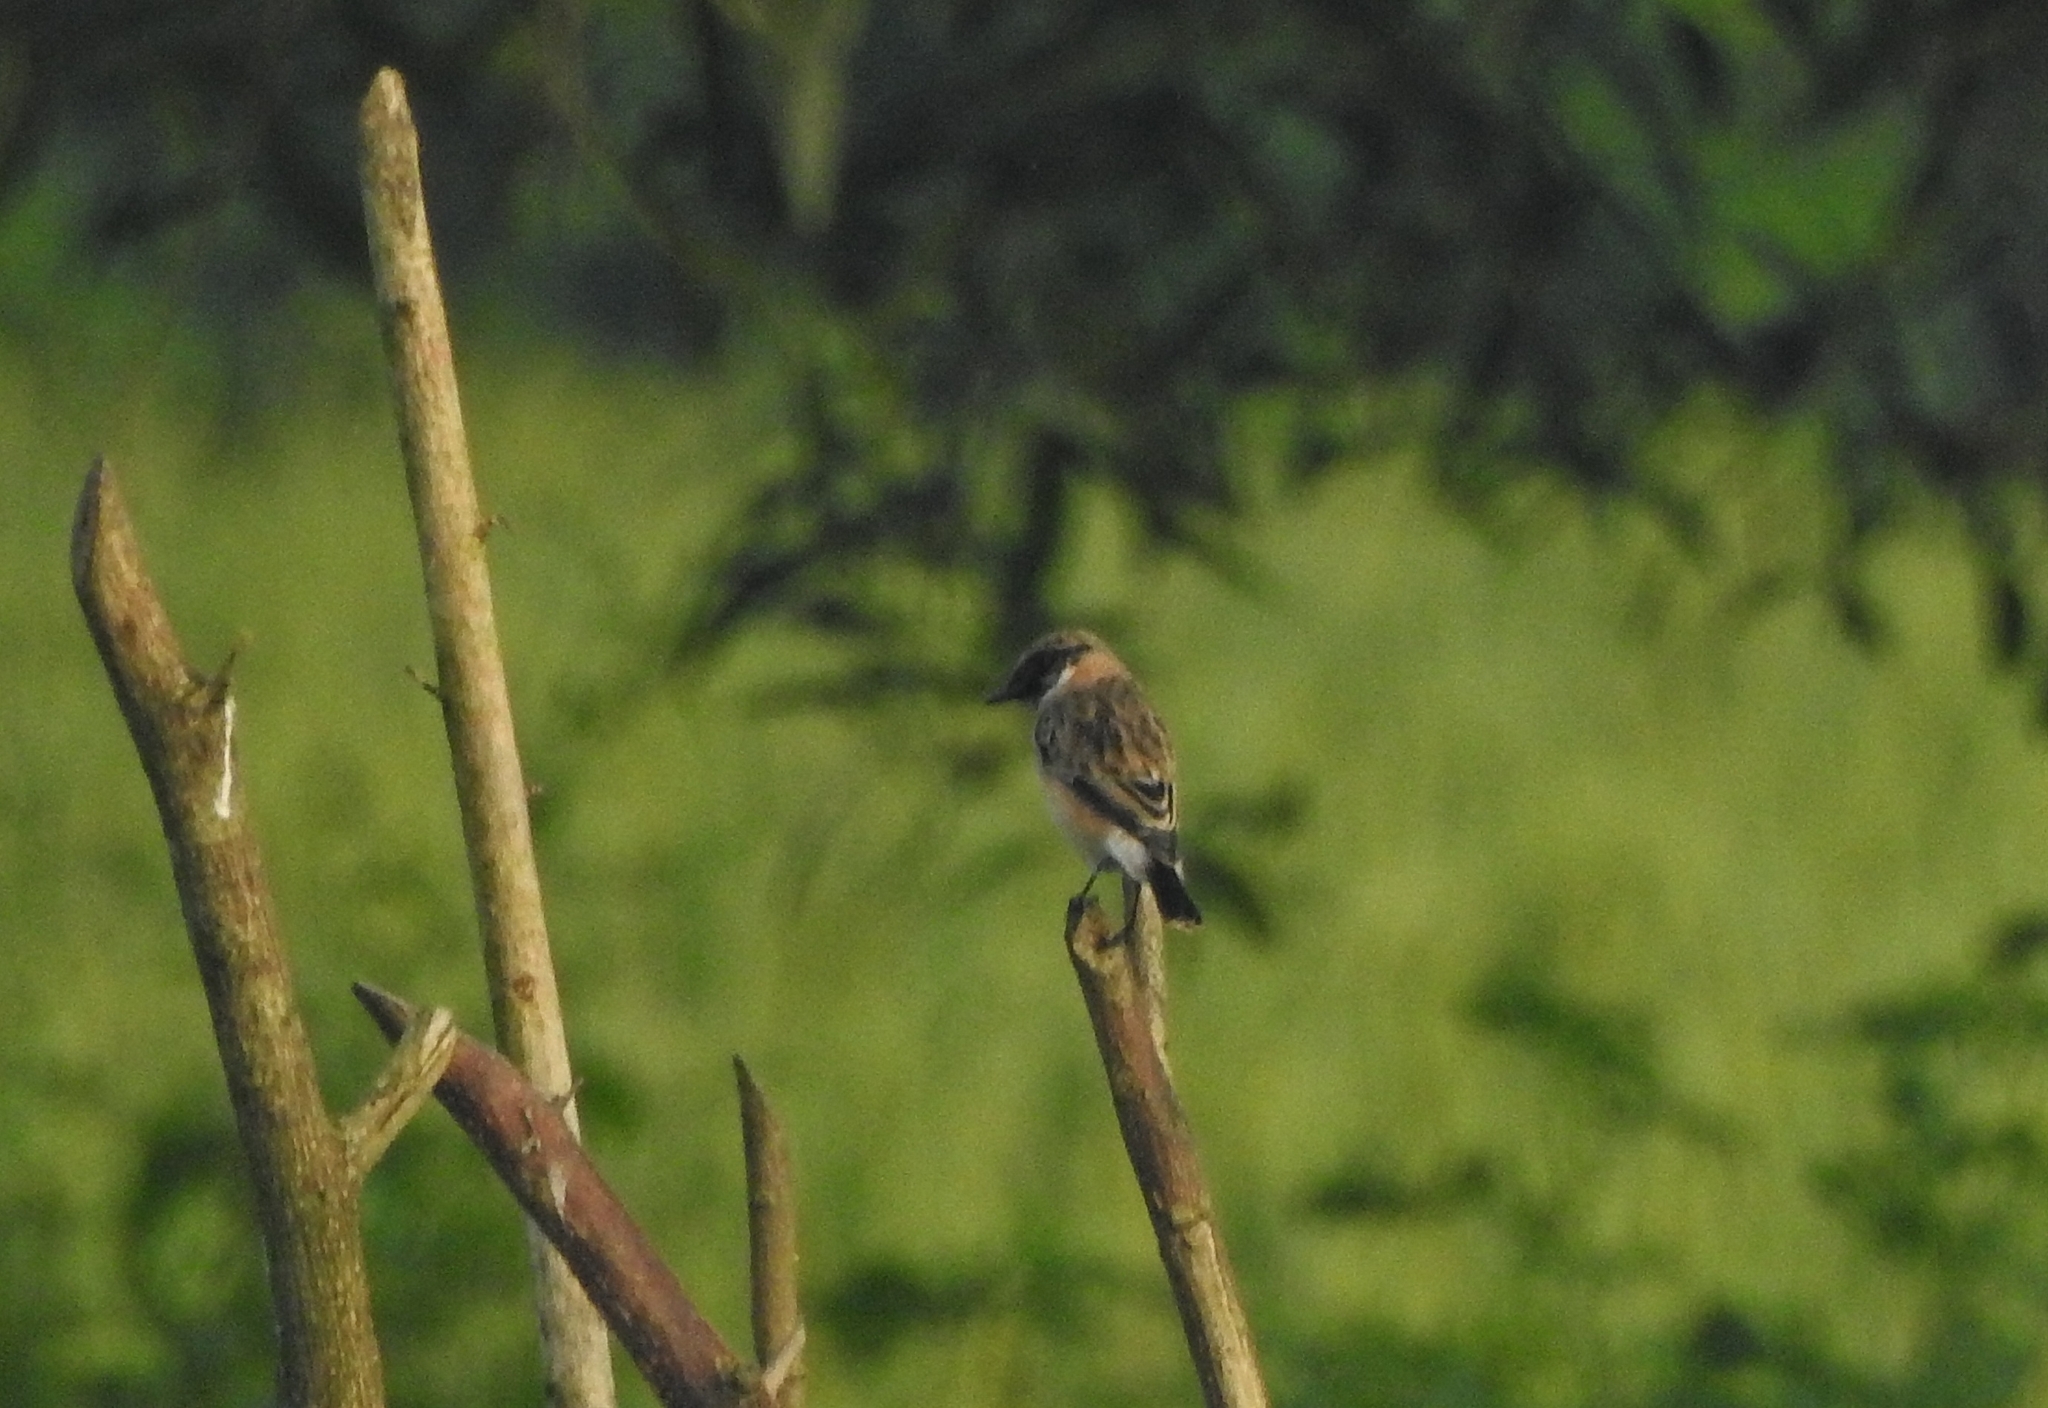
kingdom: Animalia
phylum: Chordata
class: Aves
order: Passeriformes
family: Muscicapidae
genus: Saxicola
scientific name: Saxicola maurus
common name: Siberian stonechat
